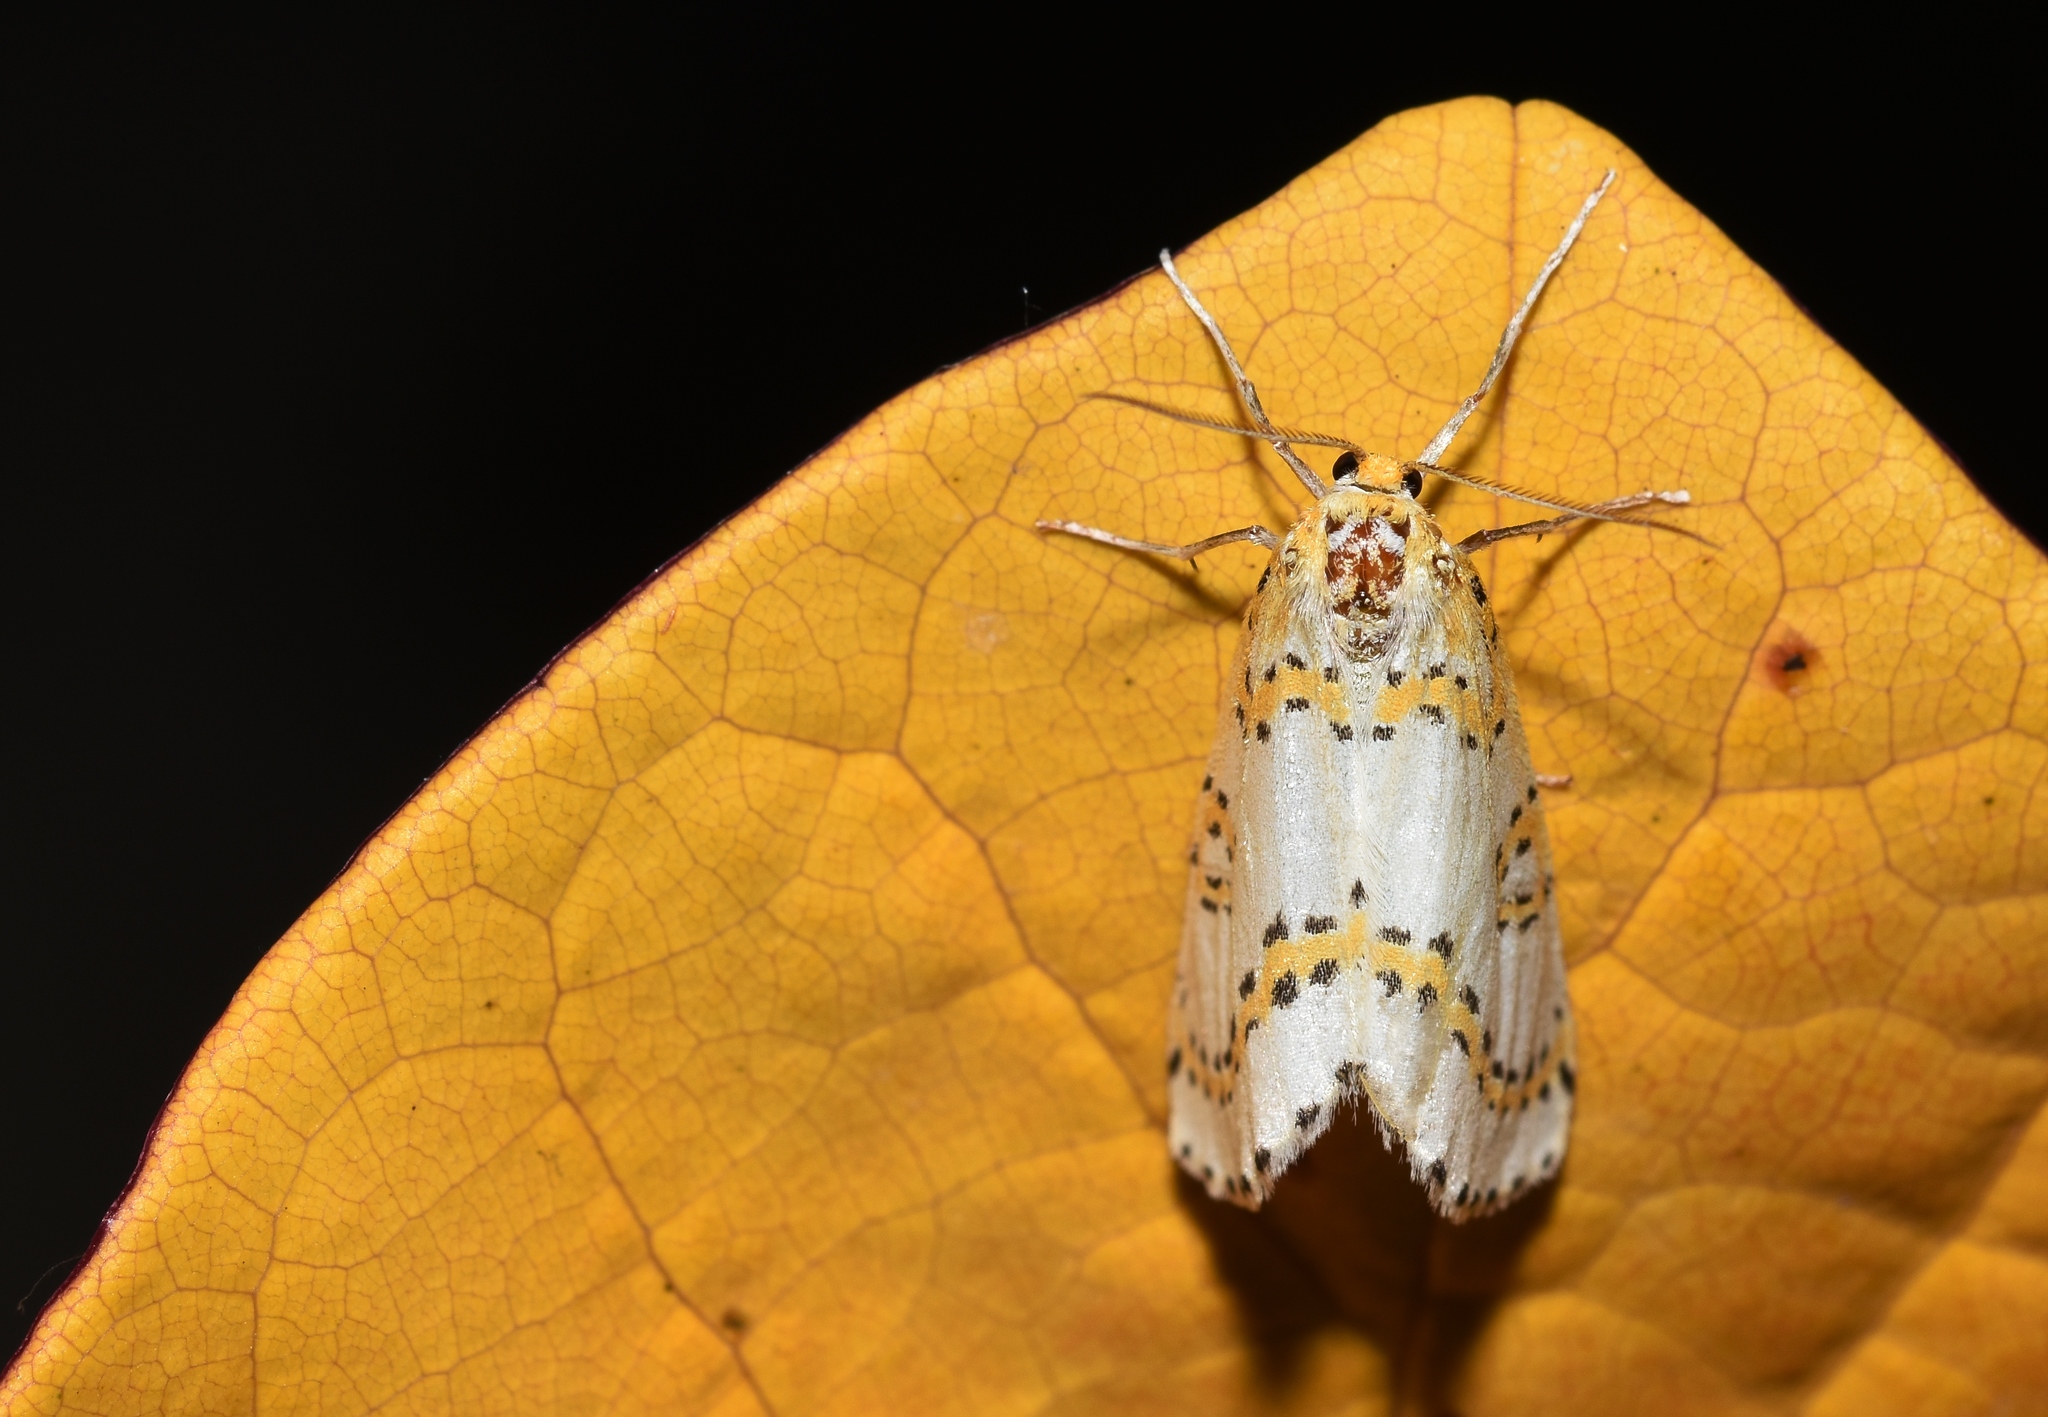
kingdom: Animalia
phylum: Arthropoda
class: Insecta
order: Lepidoptera
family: Geometridae
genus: Philtraea
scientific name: Philtraea monillata
